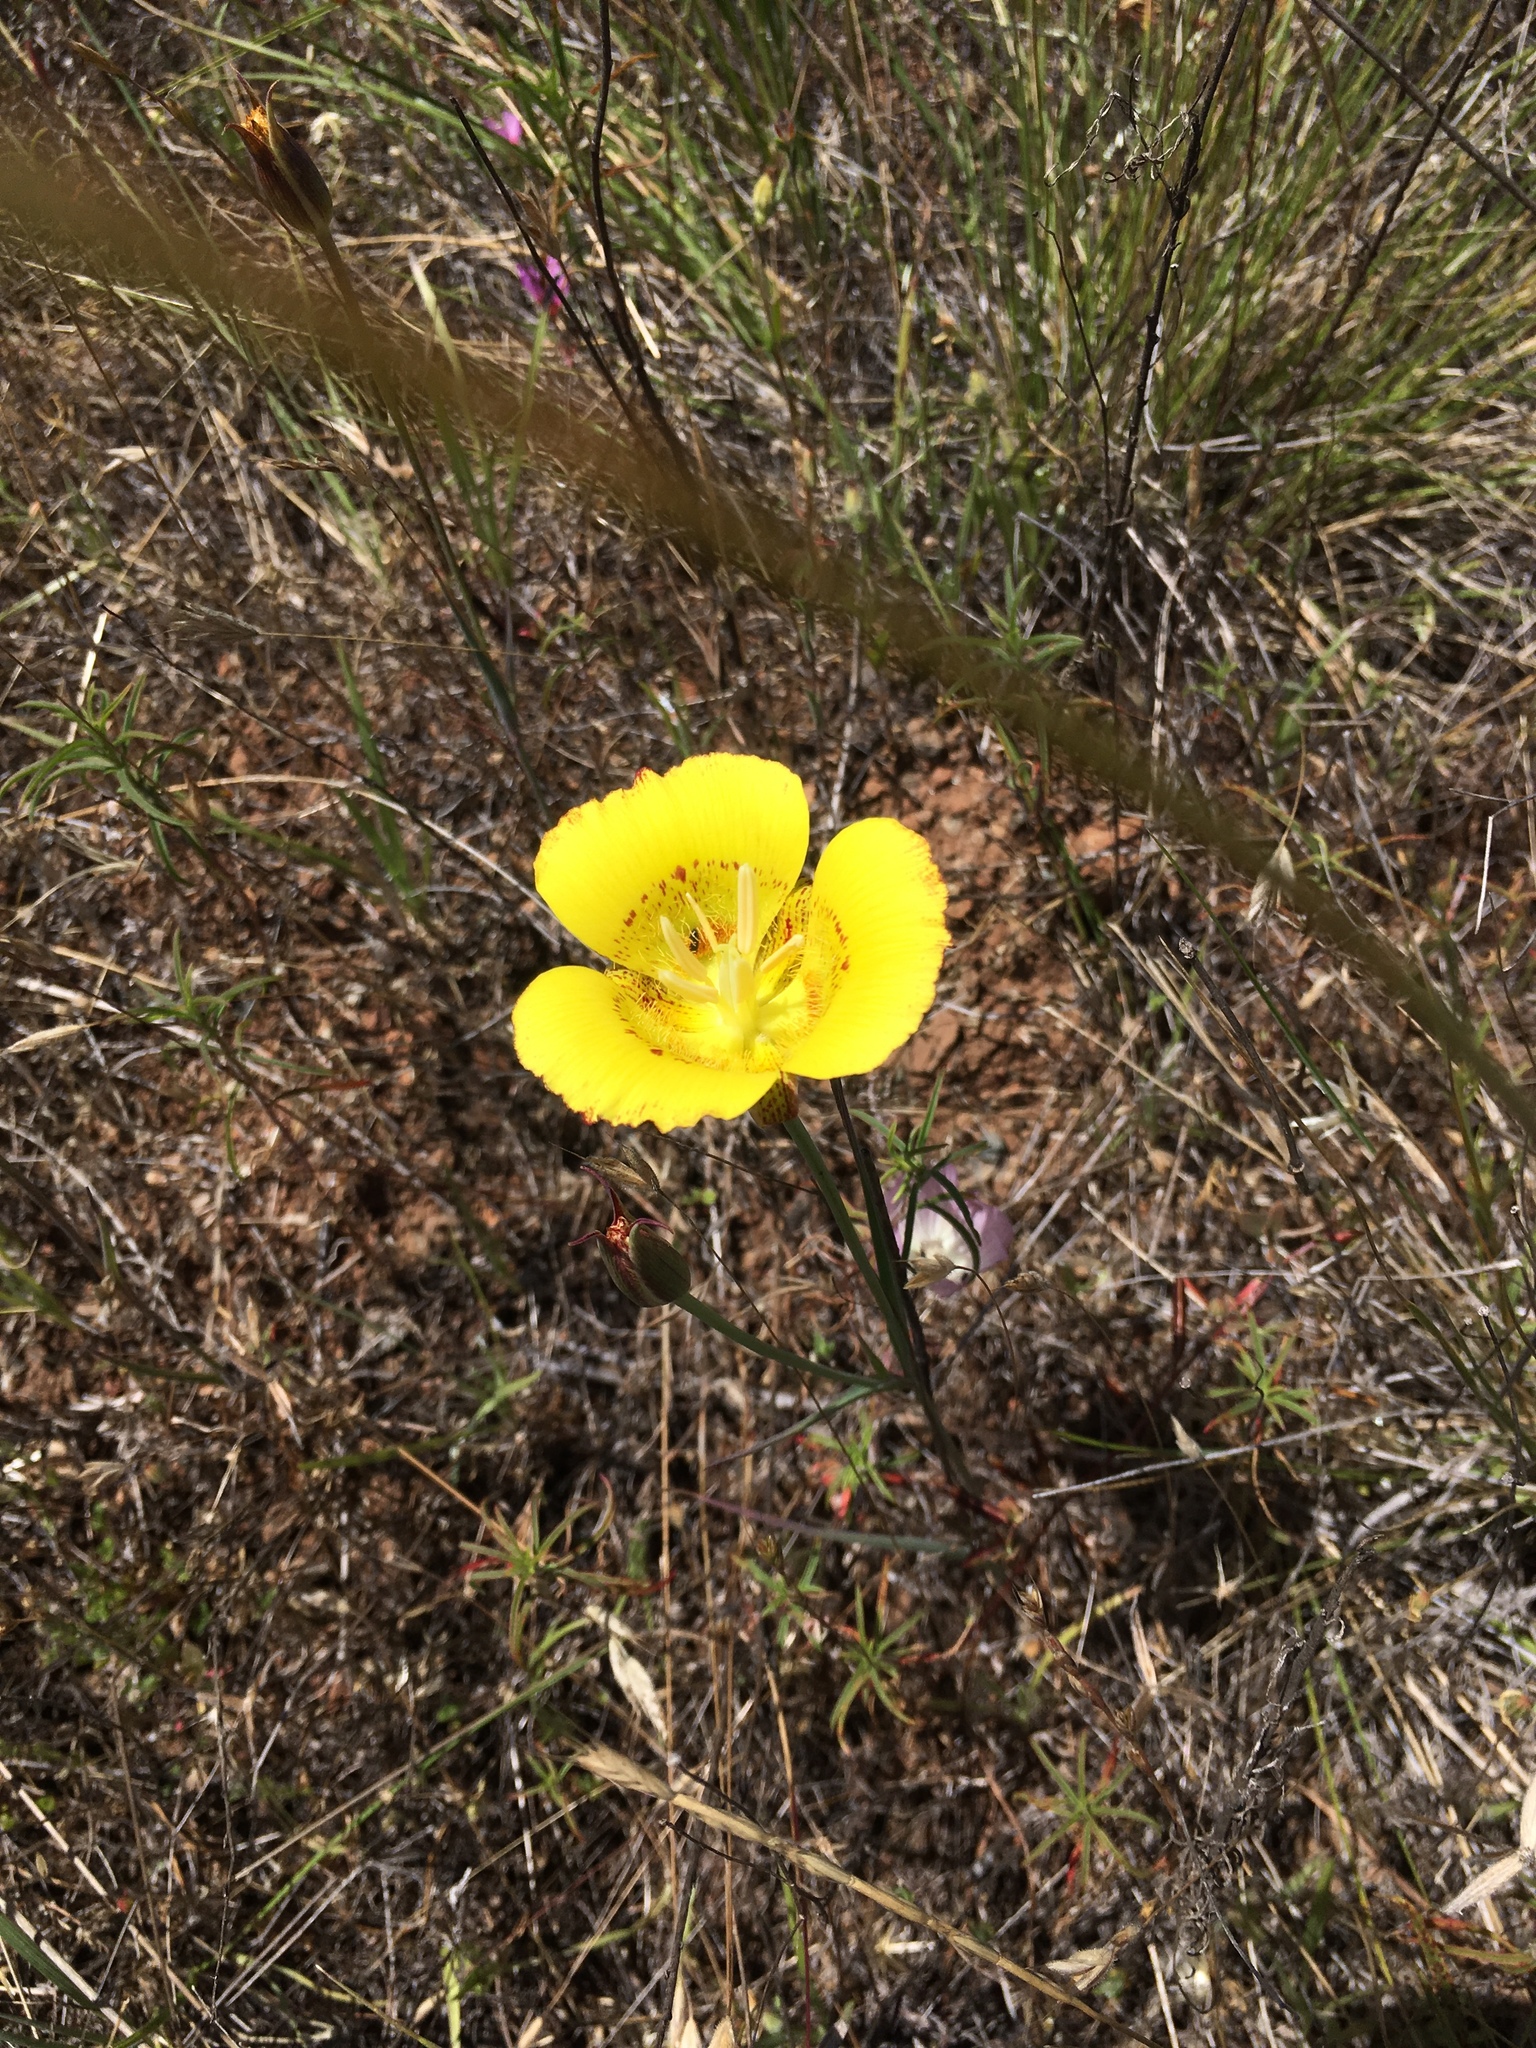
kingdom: Plantae
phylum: Tracheophyta
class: Liliopsida
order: Liliales
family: Liliaceae
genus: Calochortus
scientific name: Calochortus luteus
